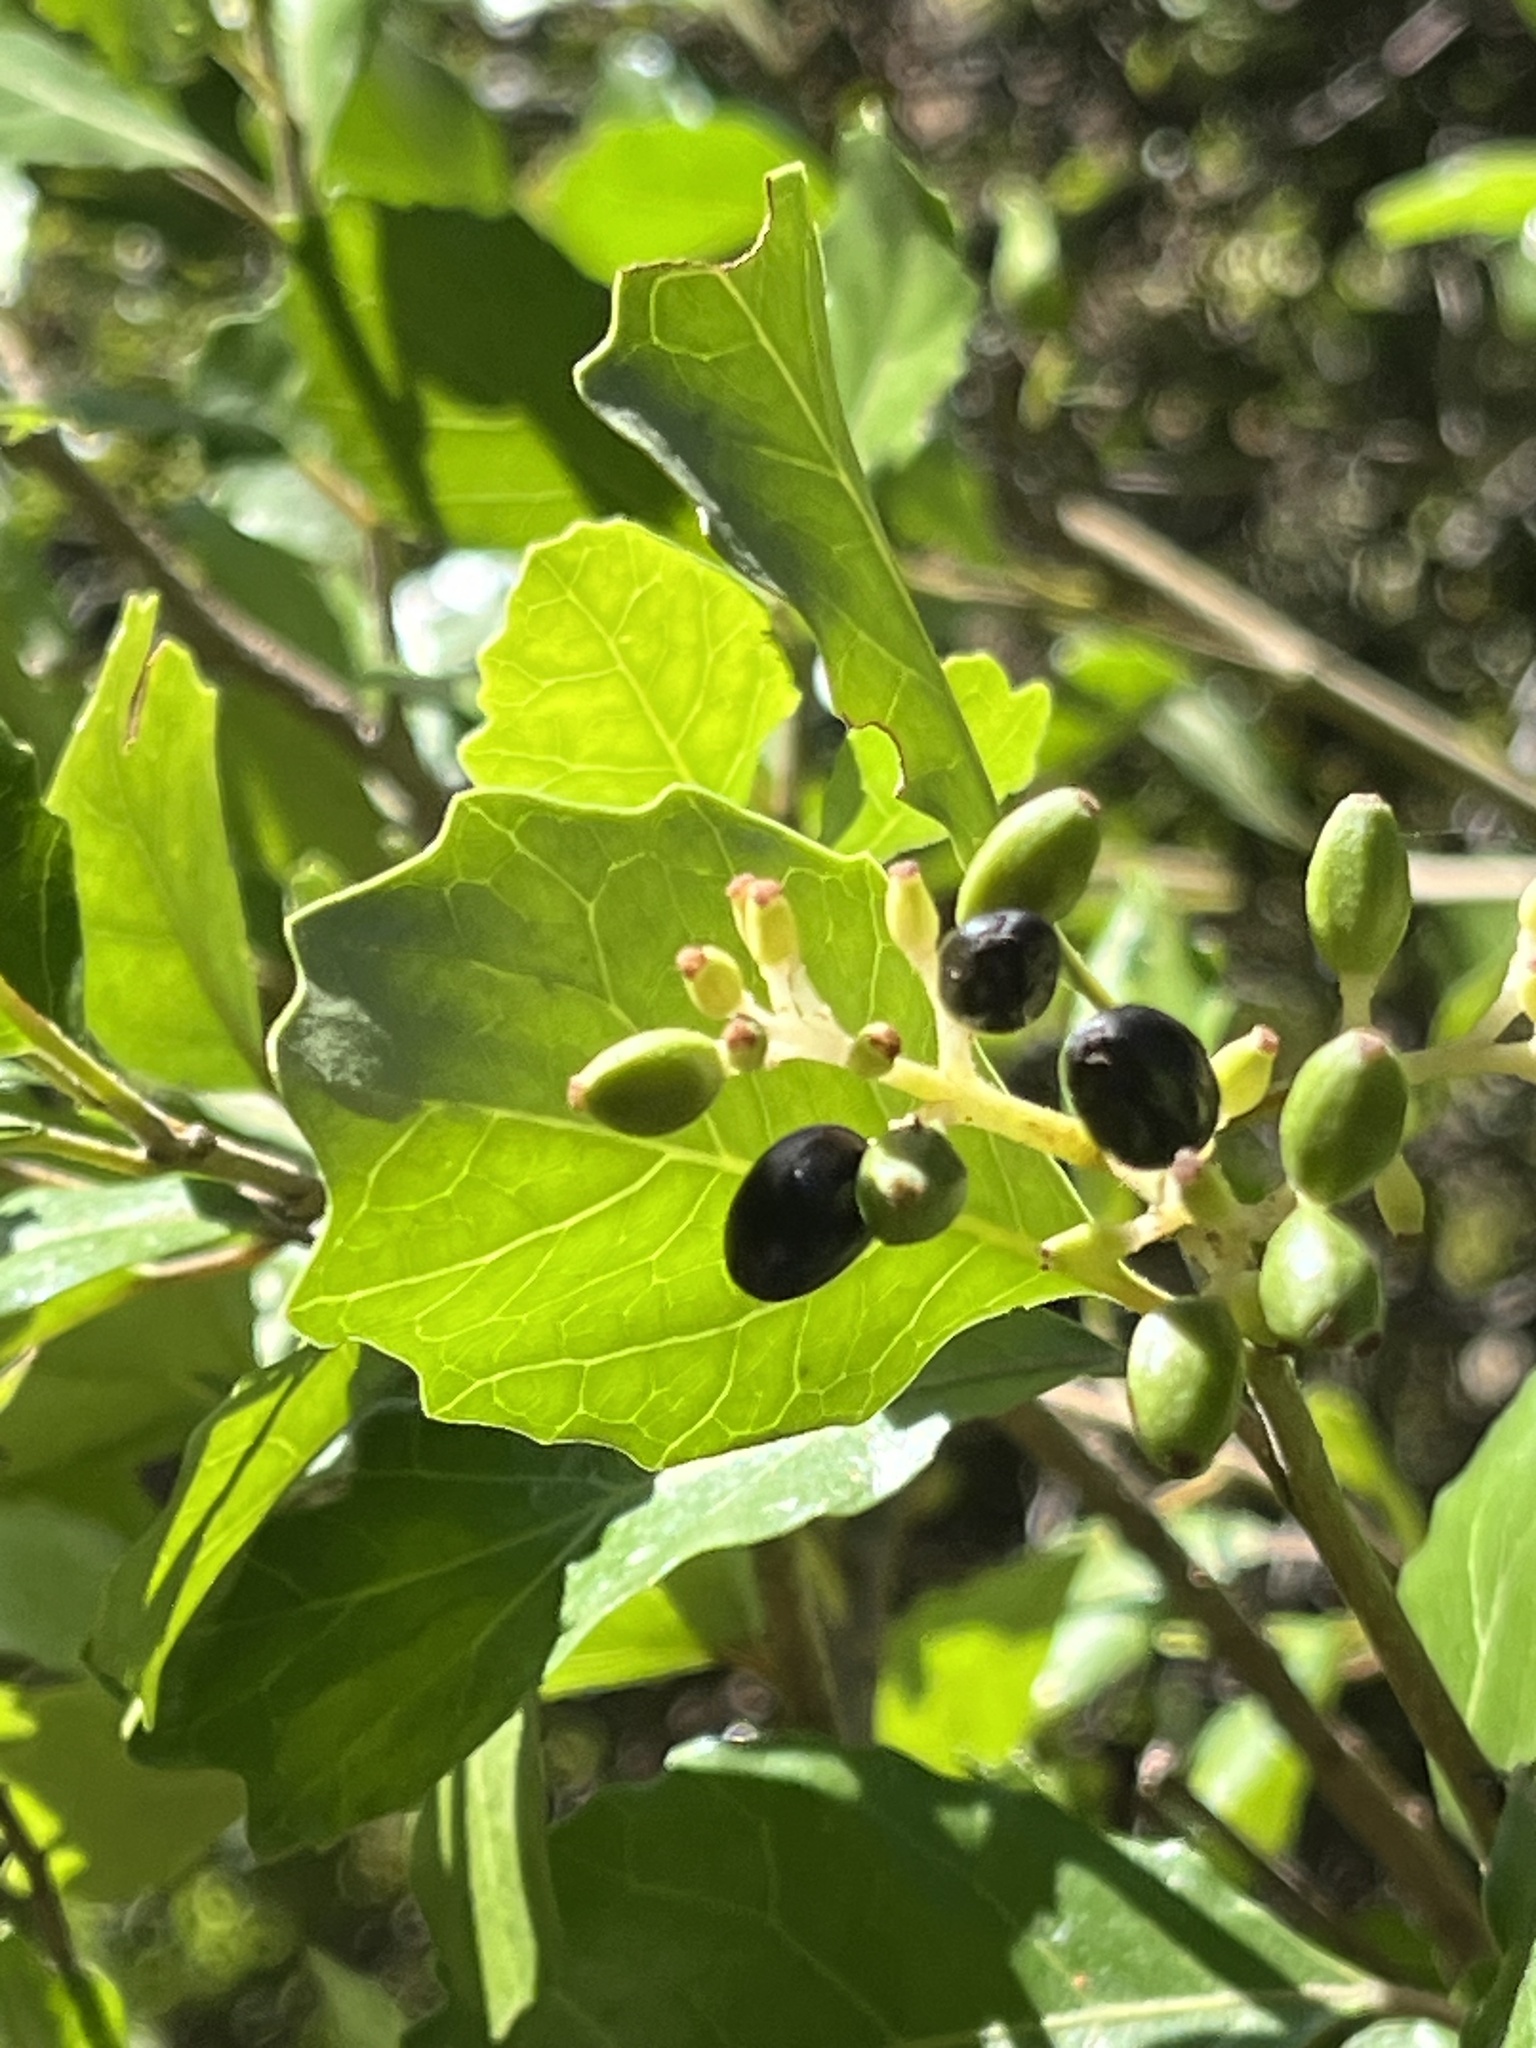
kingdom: Plantae
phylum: Tracheophyta
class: Magnoliopsida
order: Apiales
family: Pennantiaceae
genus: Pennantia
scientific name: Pennantia corymbosa
